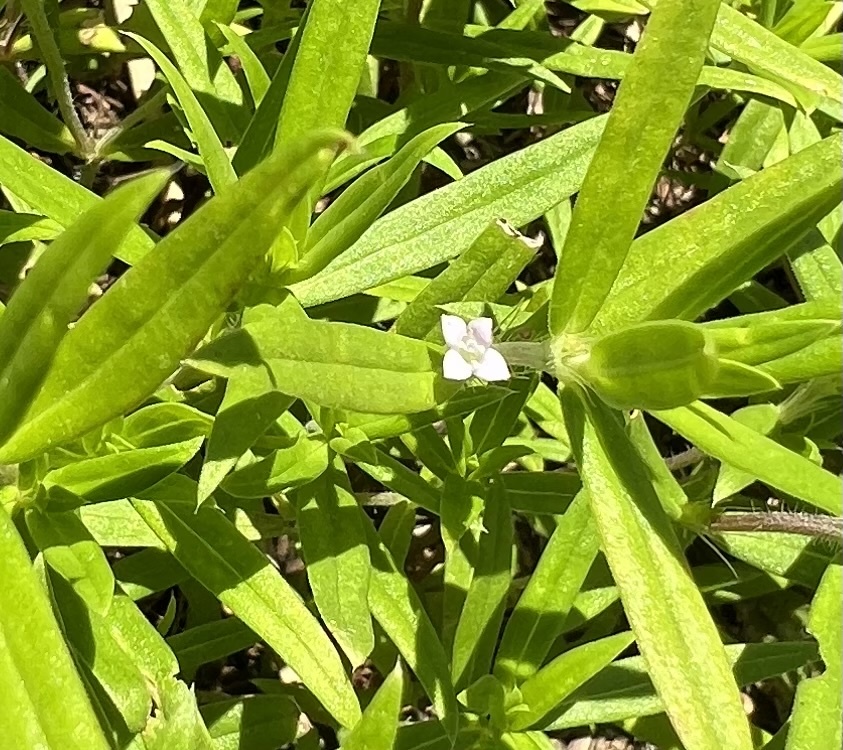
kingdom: Plantae
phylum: Tracheophyta
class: Magnoliopsida
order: Gentianales
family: Rubiaceae
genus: Hexasepalum
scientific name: Hexasepalum teres
